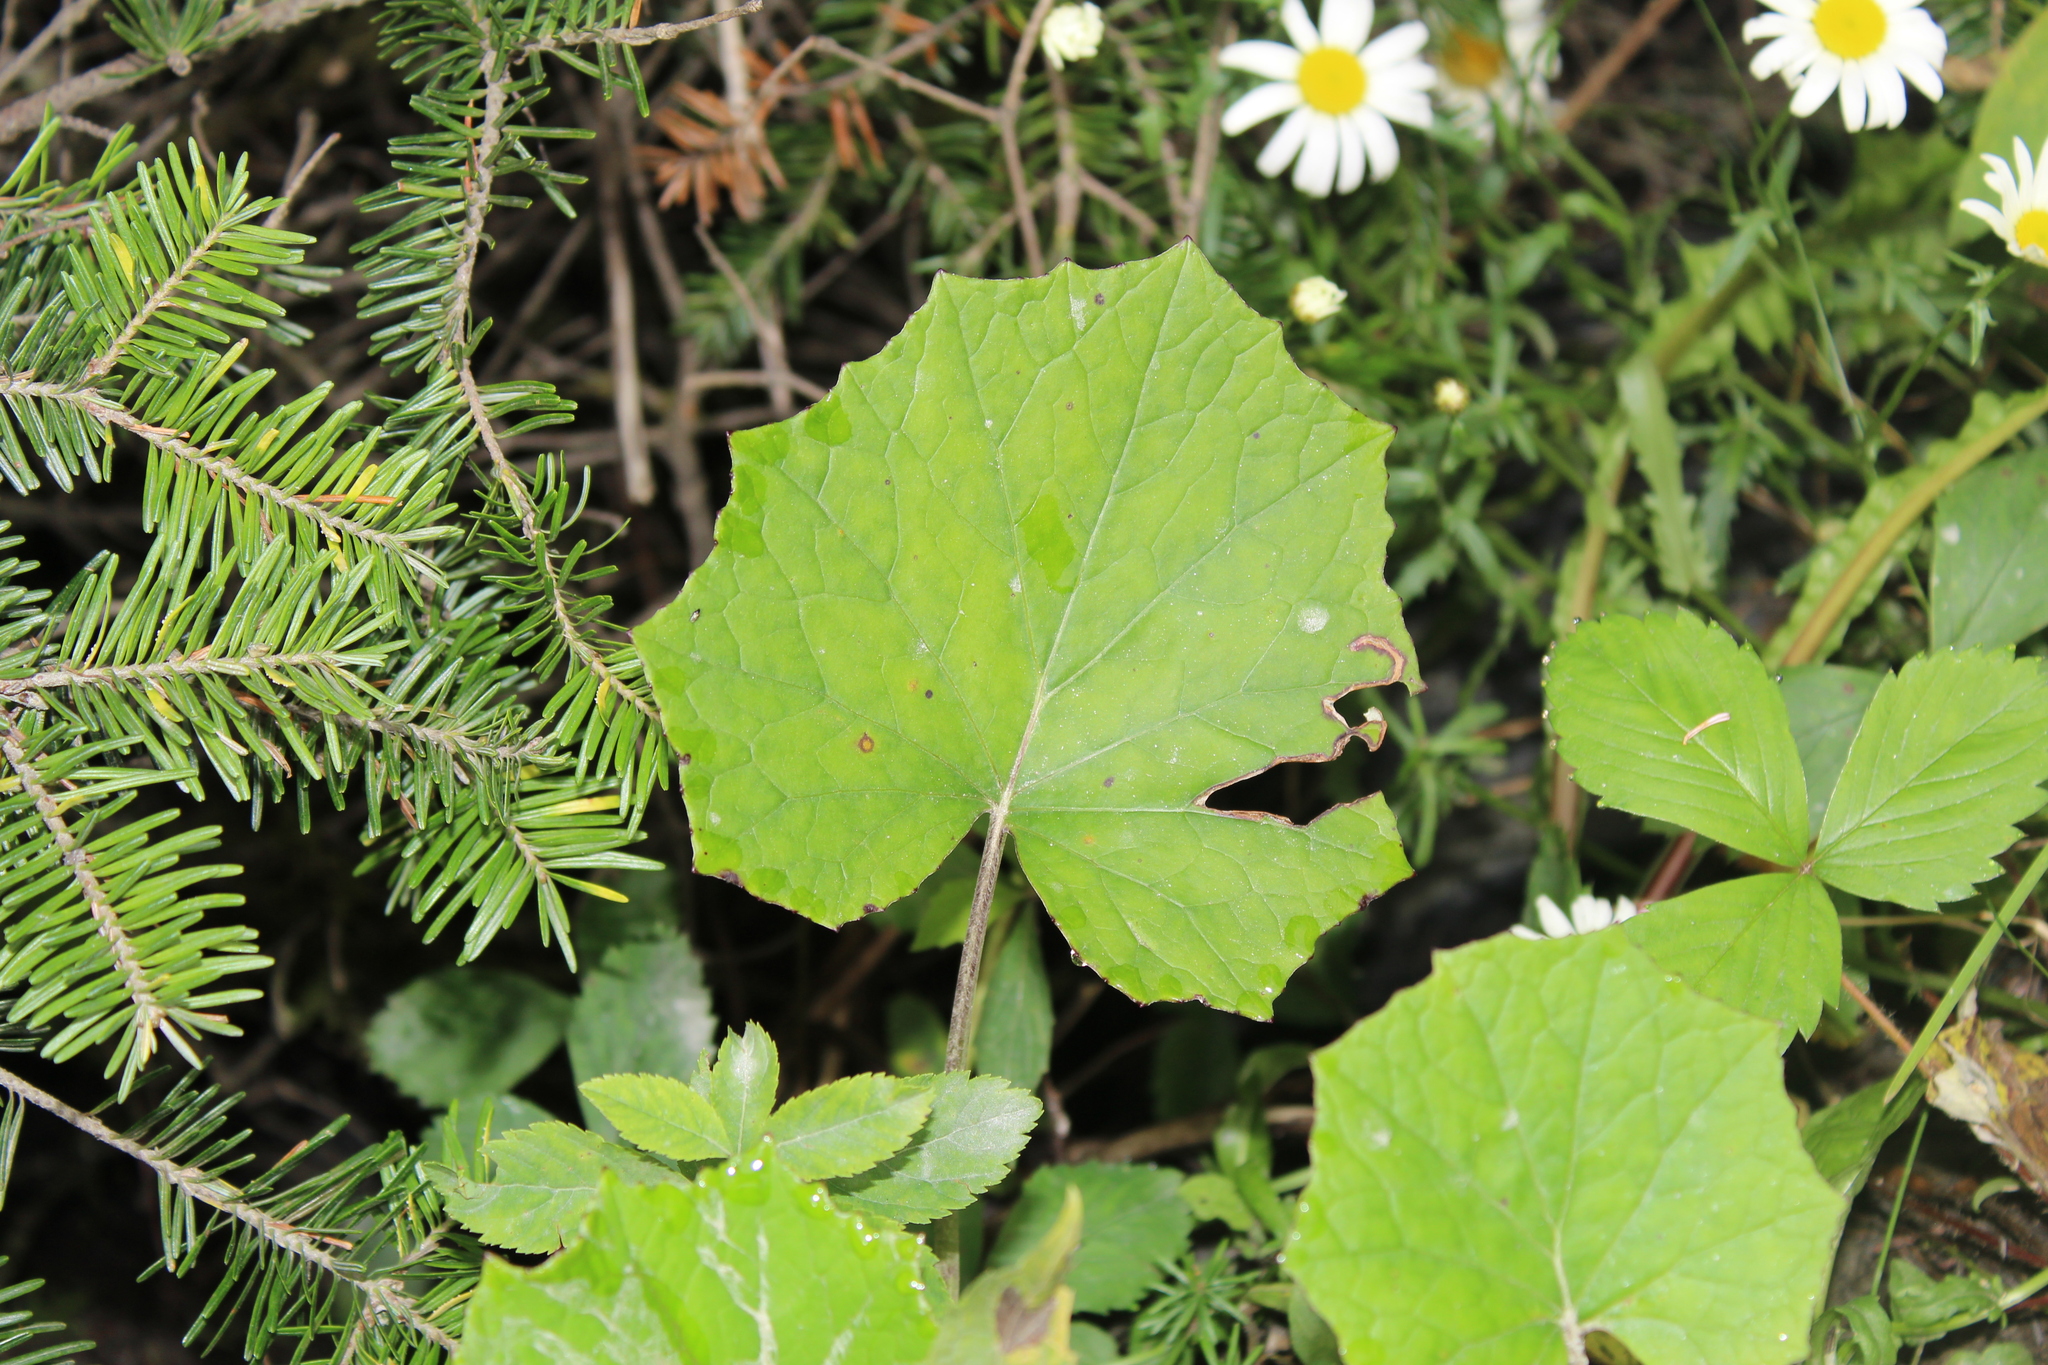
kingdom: Plantae
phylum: Tracheophyta
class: Magnoliopsida
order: Asterales
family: Asteraceae
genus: Tussilago
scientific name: Tussilago farfara
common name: Coltsfoot
